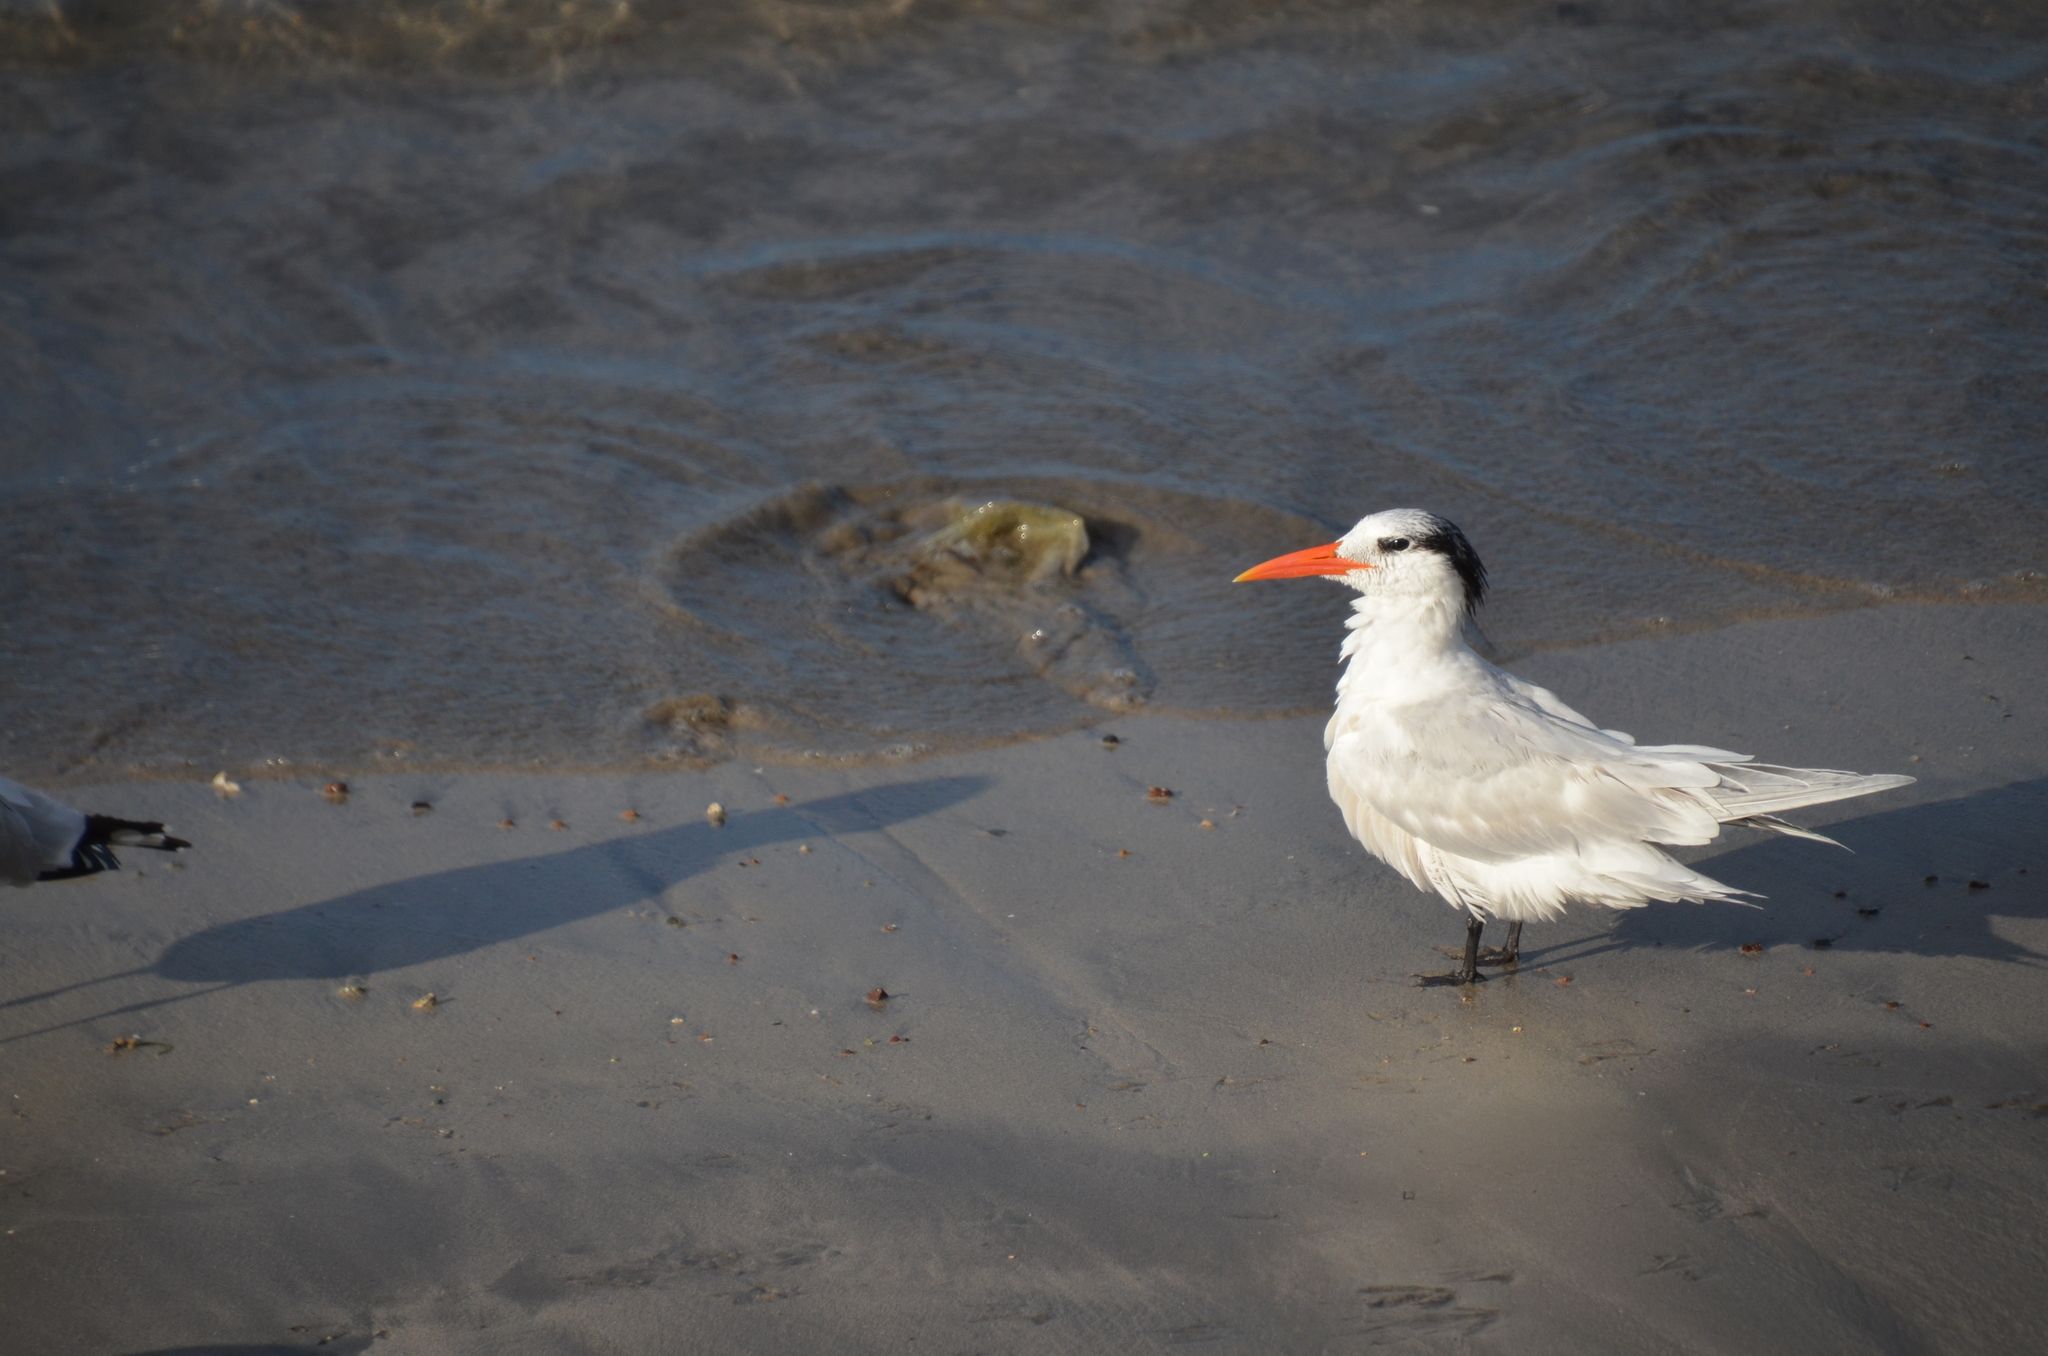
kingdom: Animalia
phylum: Chordata
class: Aves
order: Charadriiformes
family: Laridae
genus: Thalasseus
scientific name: Thalasseus elegans
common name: Elegant tern
